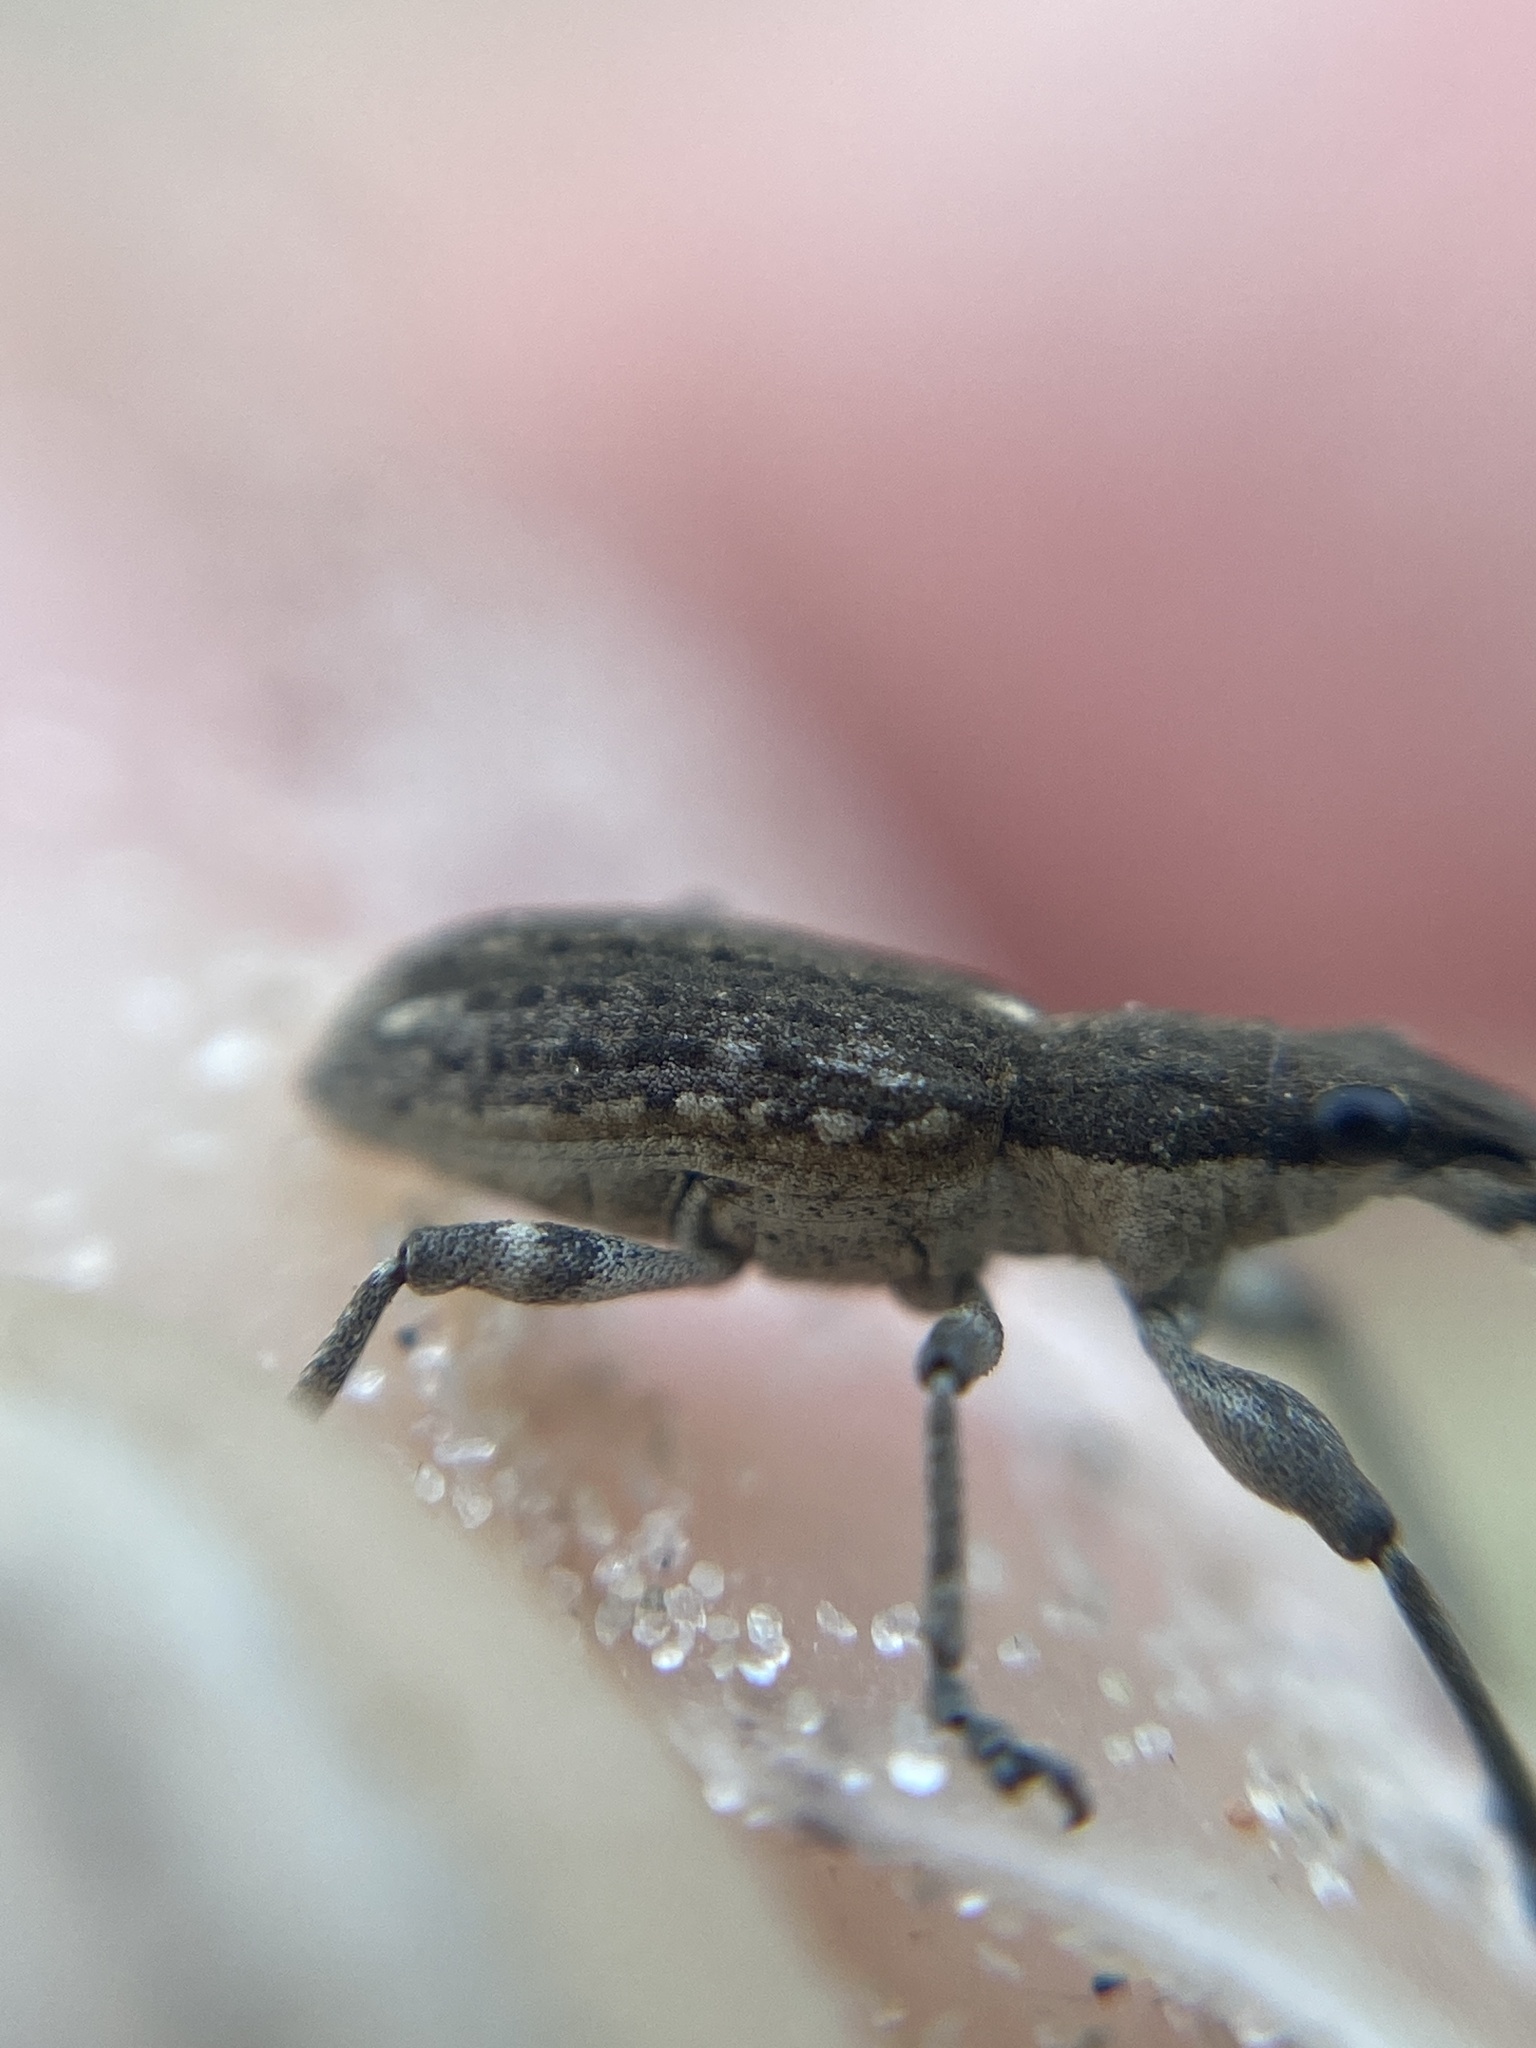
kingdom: Animalia
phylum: Arthropoda
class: Insecta
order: Coleoptera
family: Curculionidae
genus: Charagmus
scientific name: Charagmus griseus
